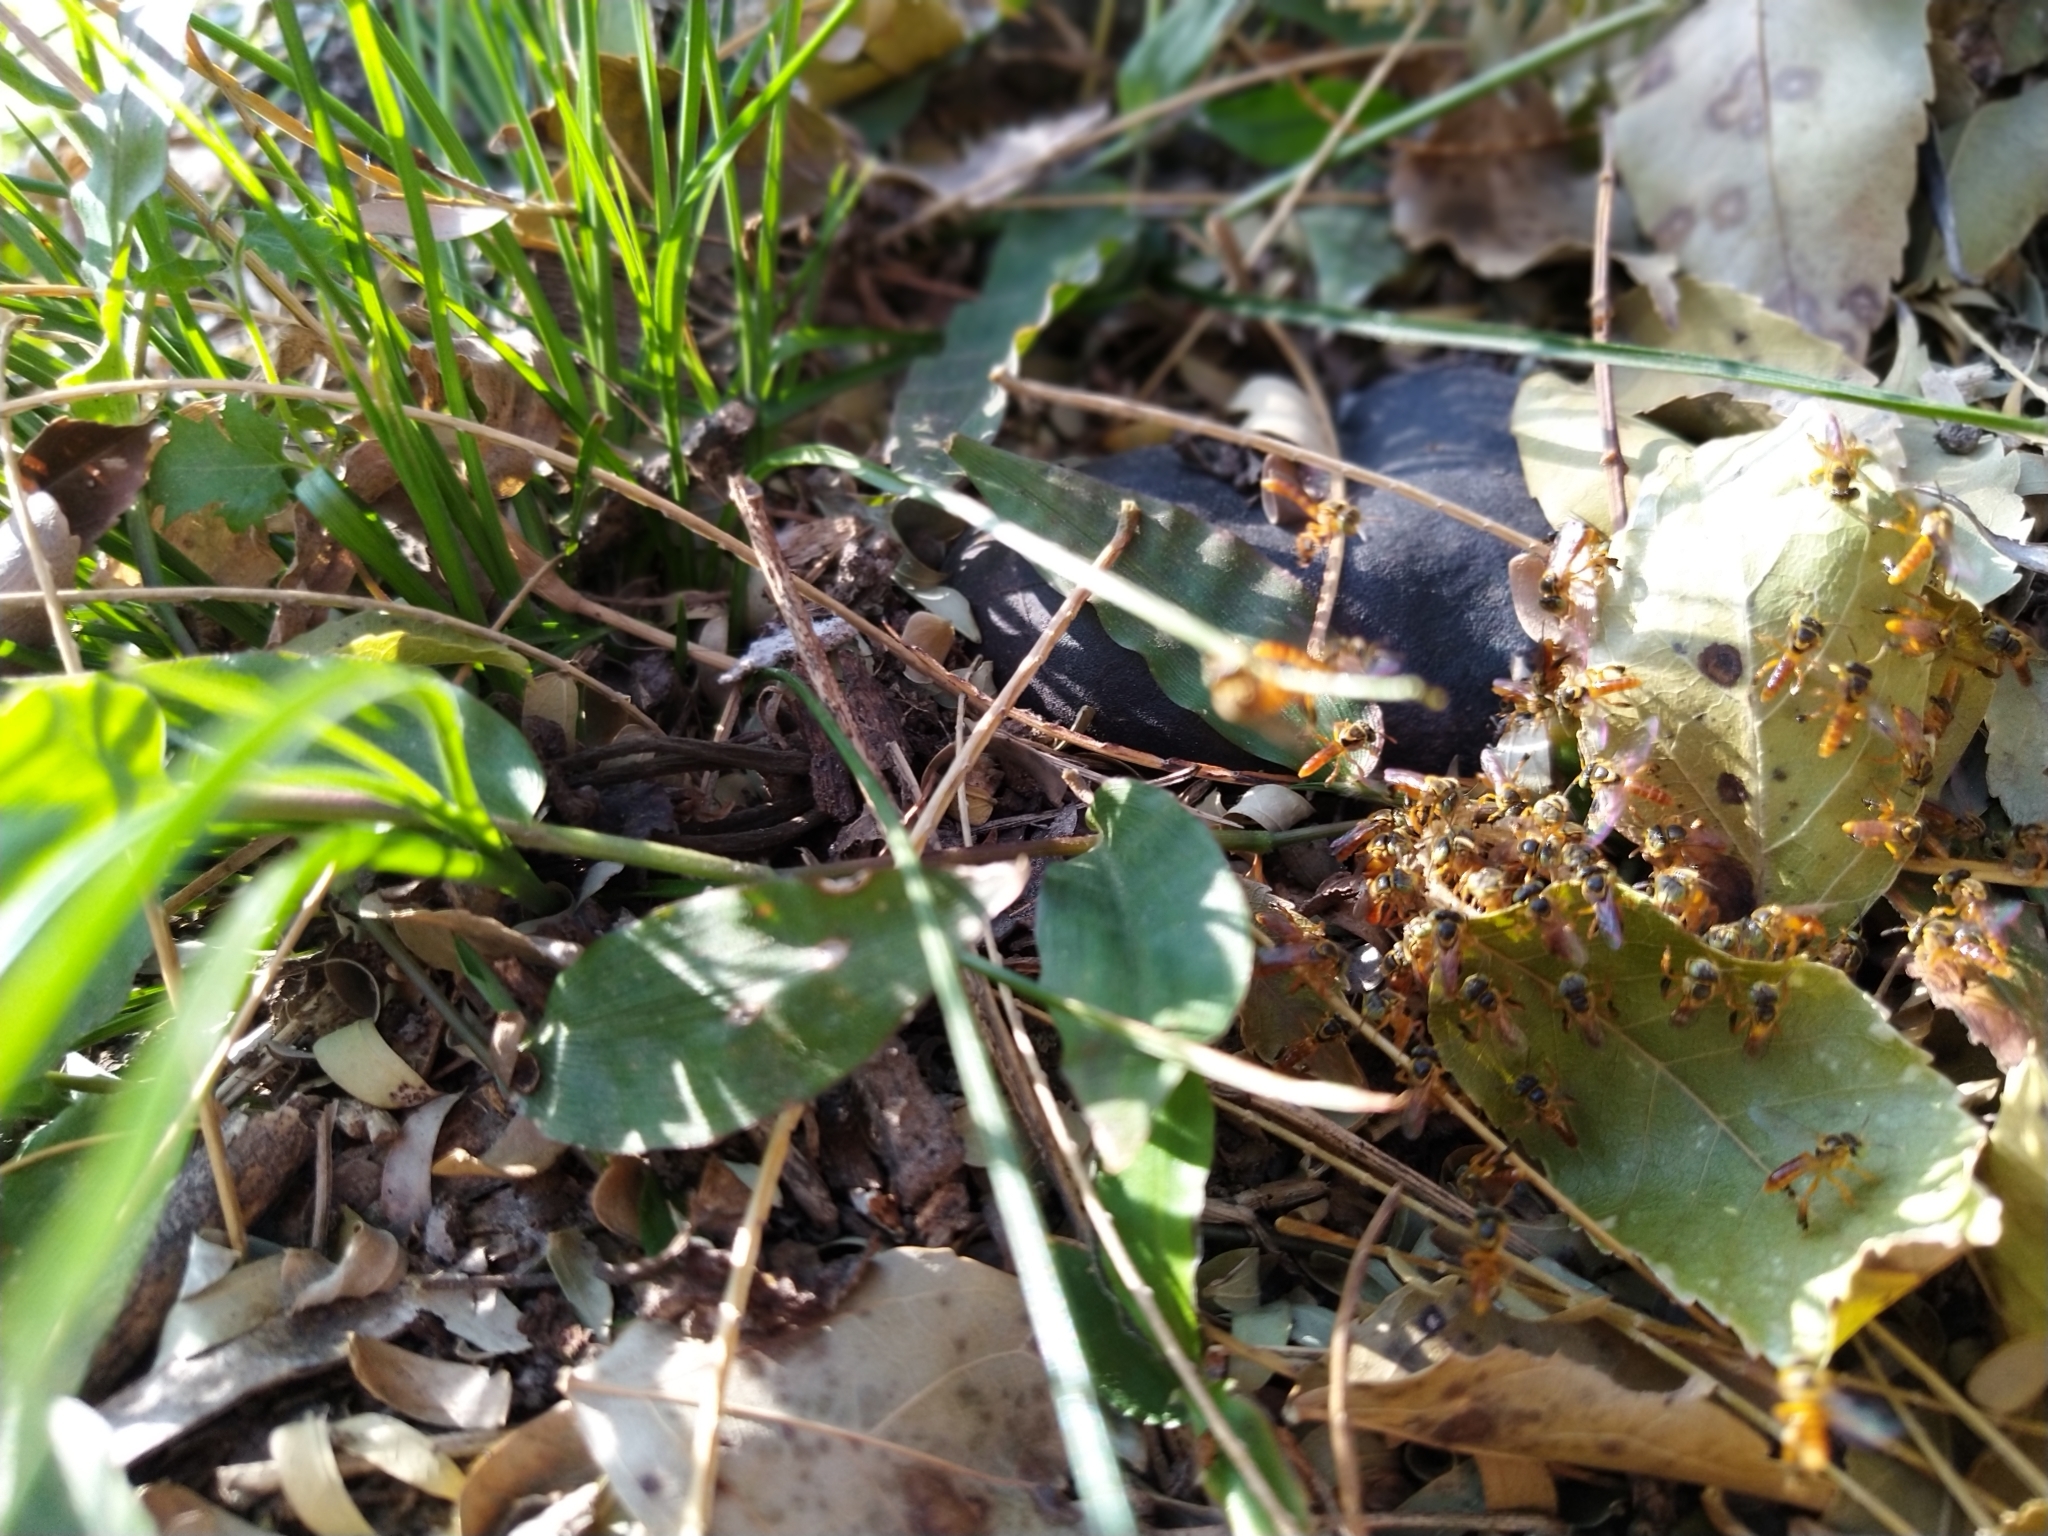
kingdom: Animalia
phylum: Arthropoda
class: Insecta
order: Hymenoptera
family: Apidae
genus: Tetragonisca
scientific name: Tetragonisca fiebrigi
